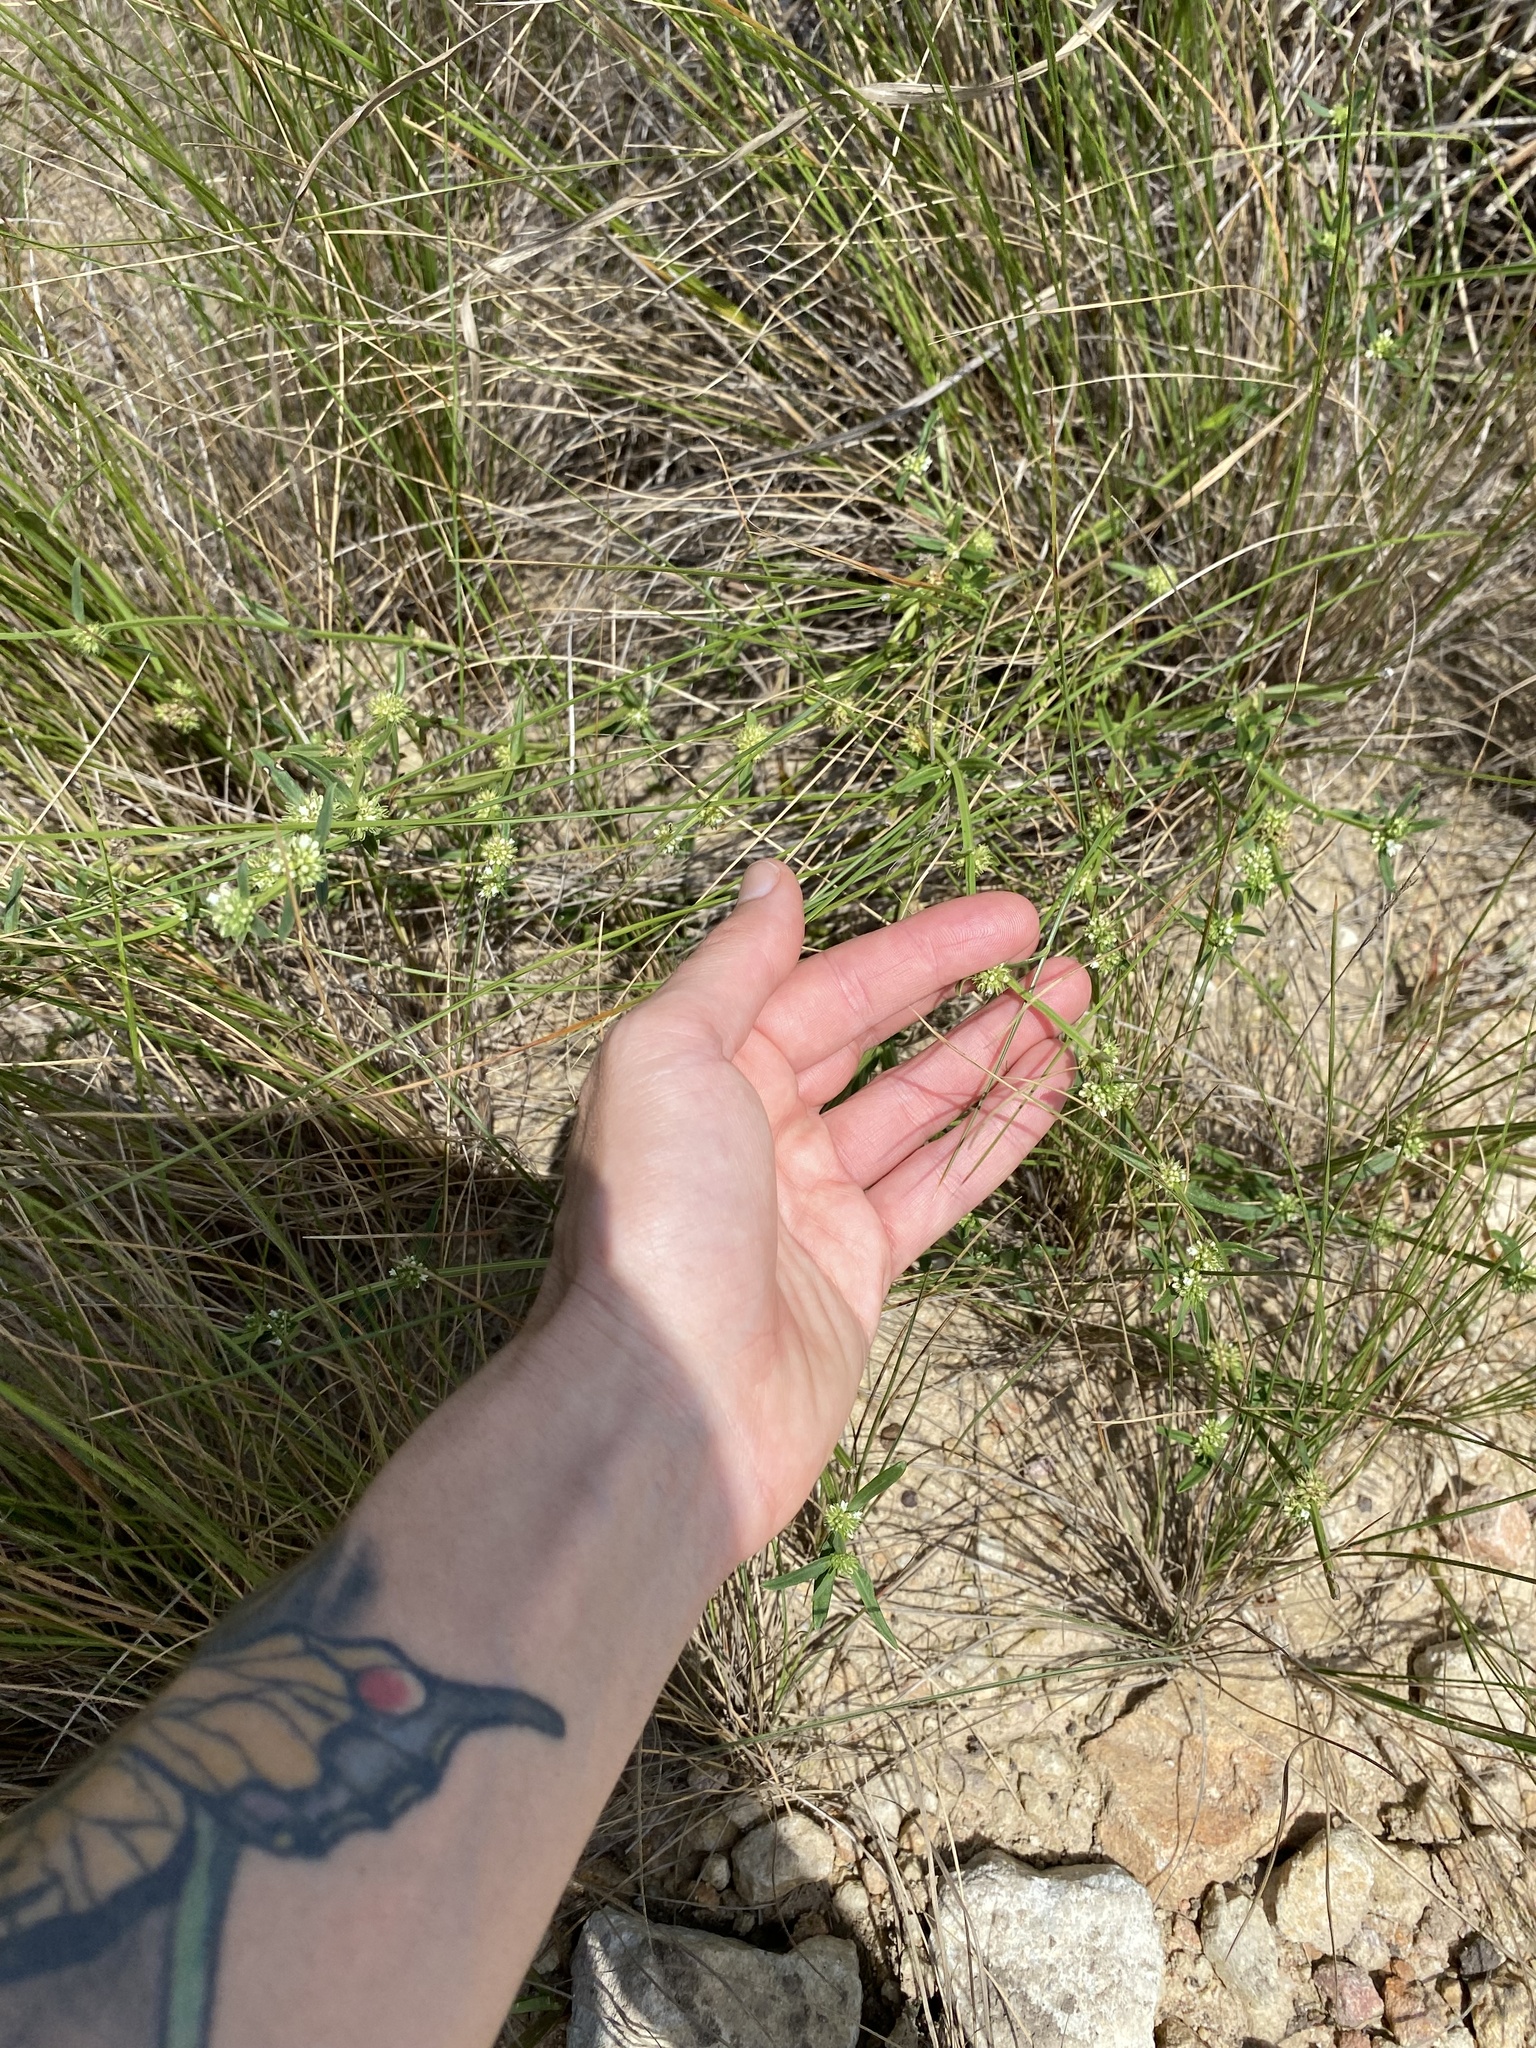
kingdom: Plantae
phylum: Tracheophyta
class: Magnoliopsida
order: Gentianales
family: Rubiaceae
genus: Spermacoce
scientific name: Spermacoce natalensis
